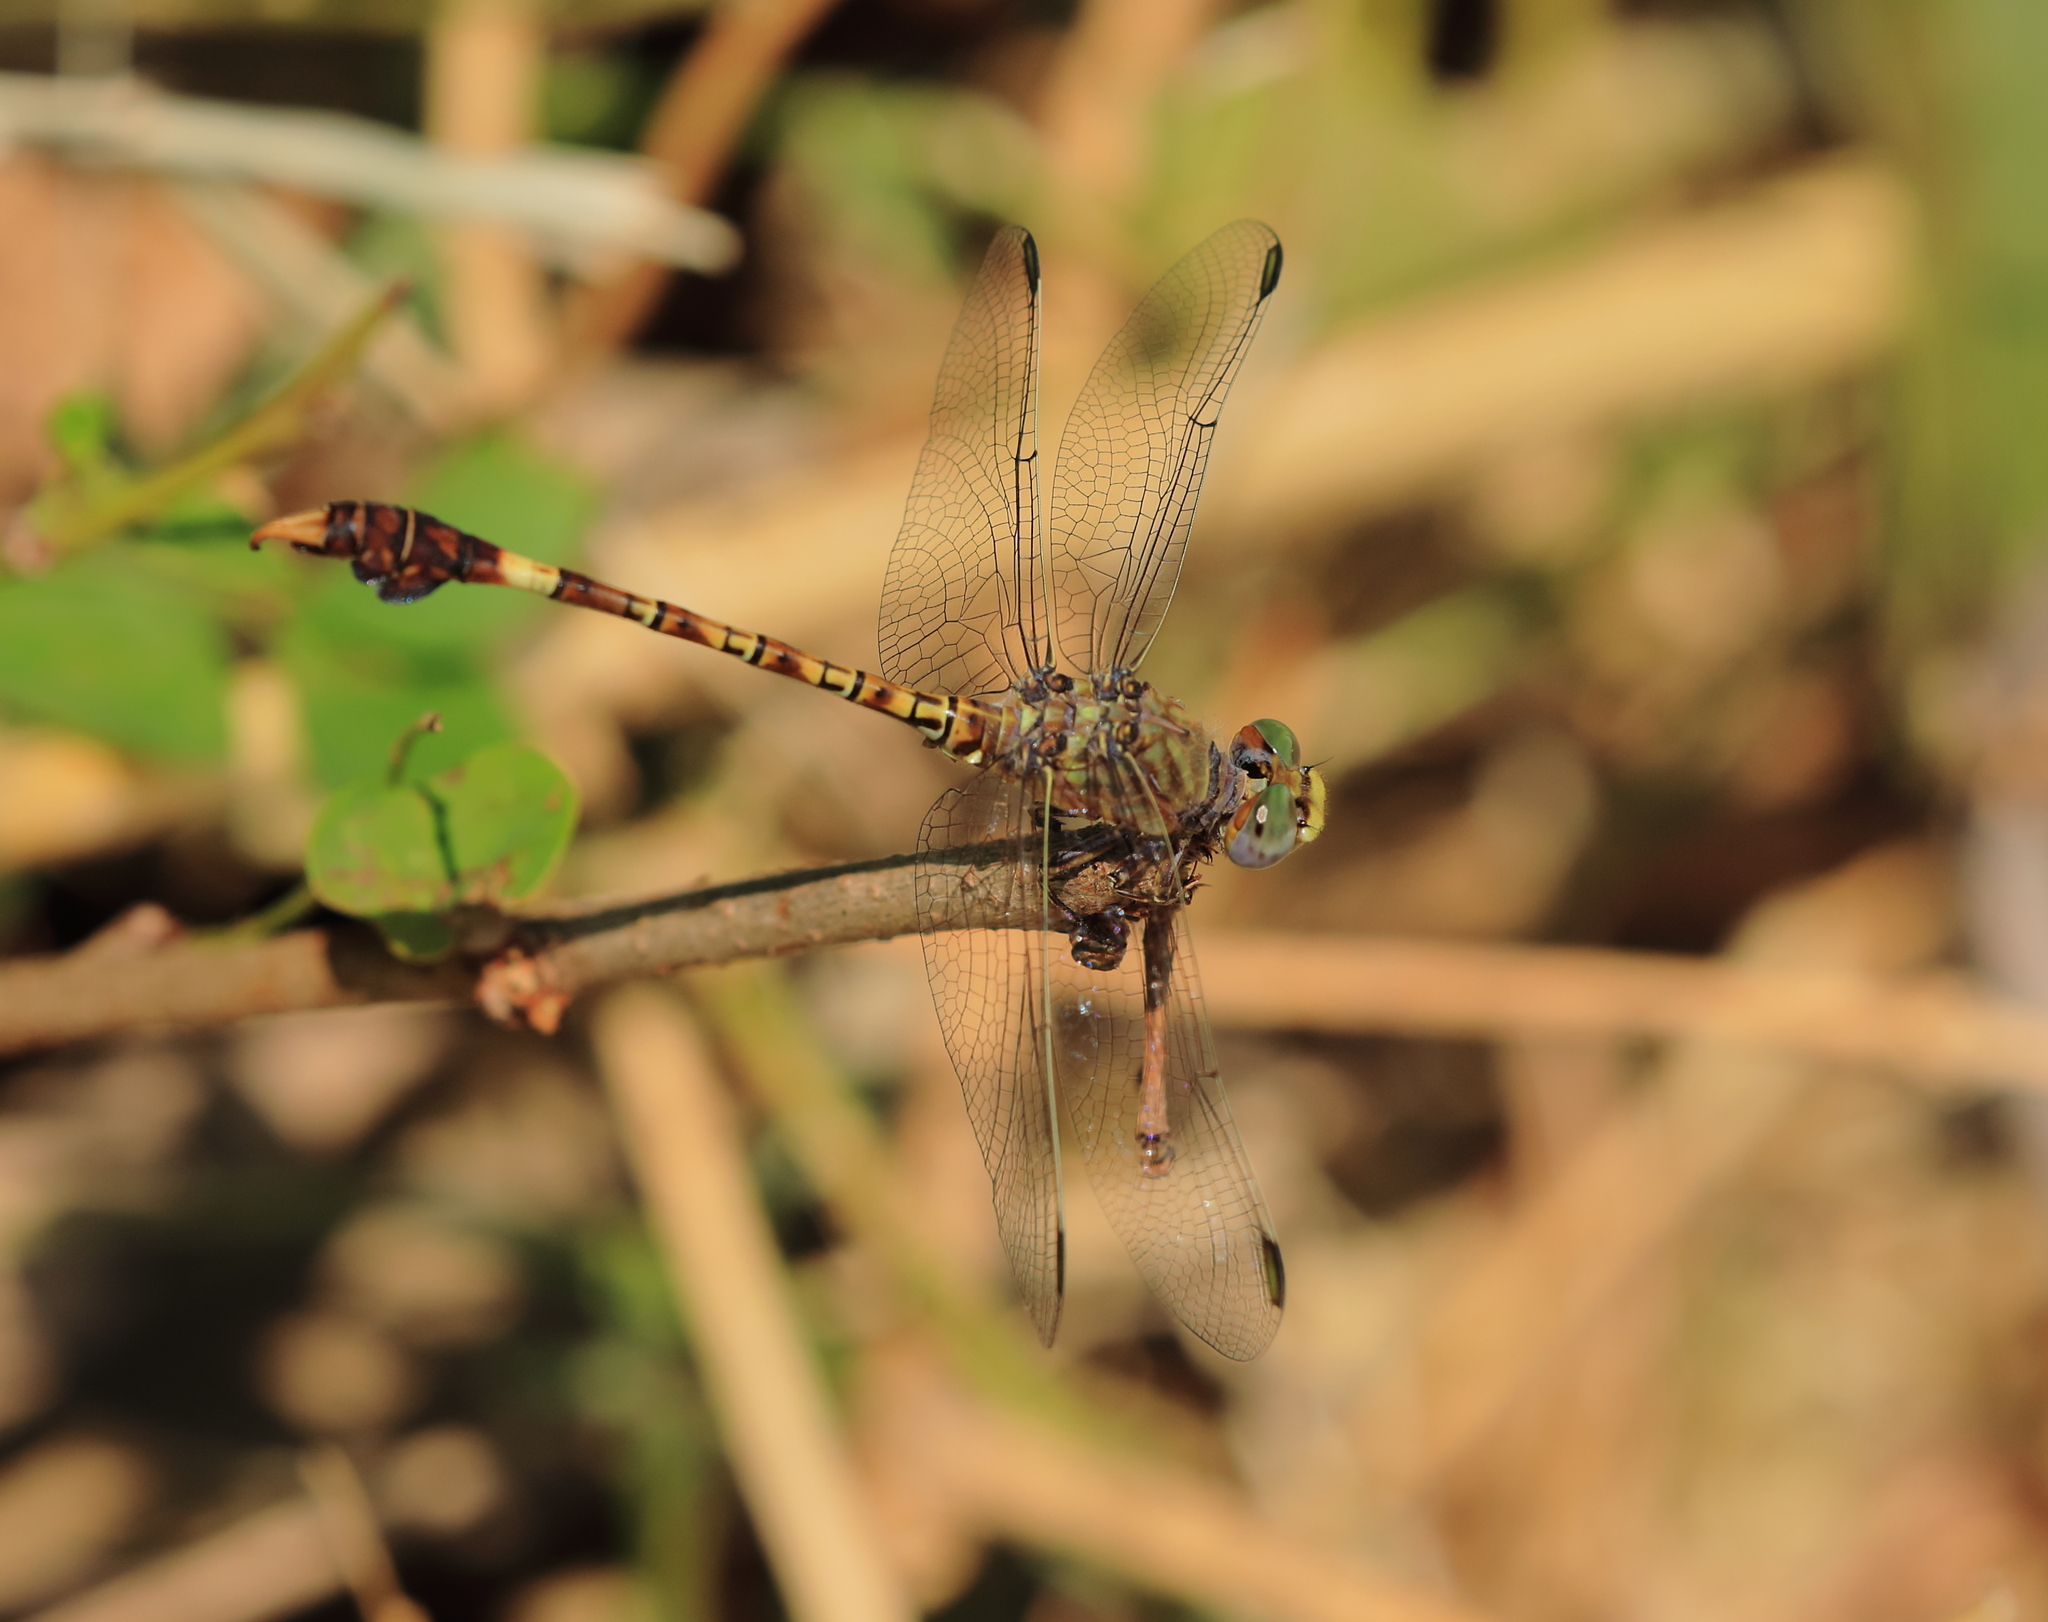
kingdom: Animalia
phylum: Arthropoda
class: Insecta
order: Odonata
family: Gomphidae
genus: Paragomphus
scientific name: Paragomphus genei
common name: Common hooktail
